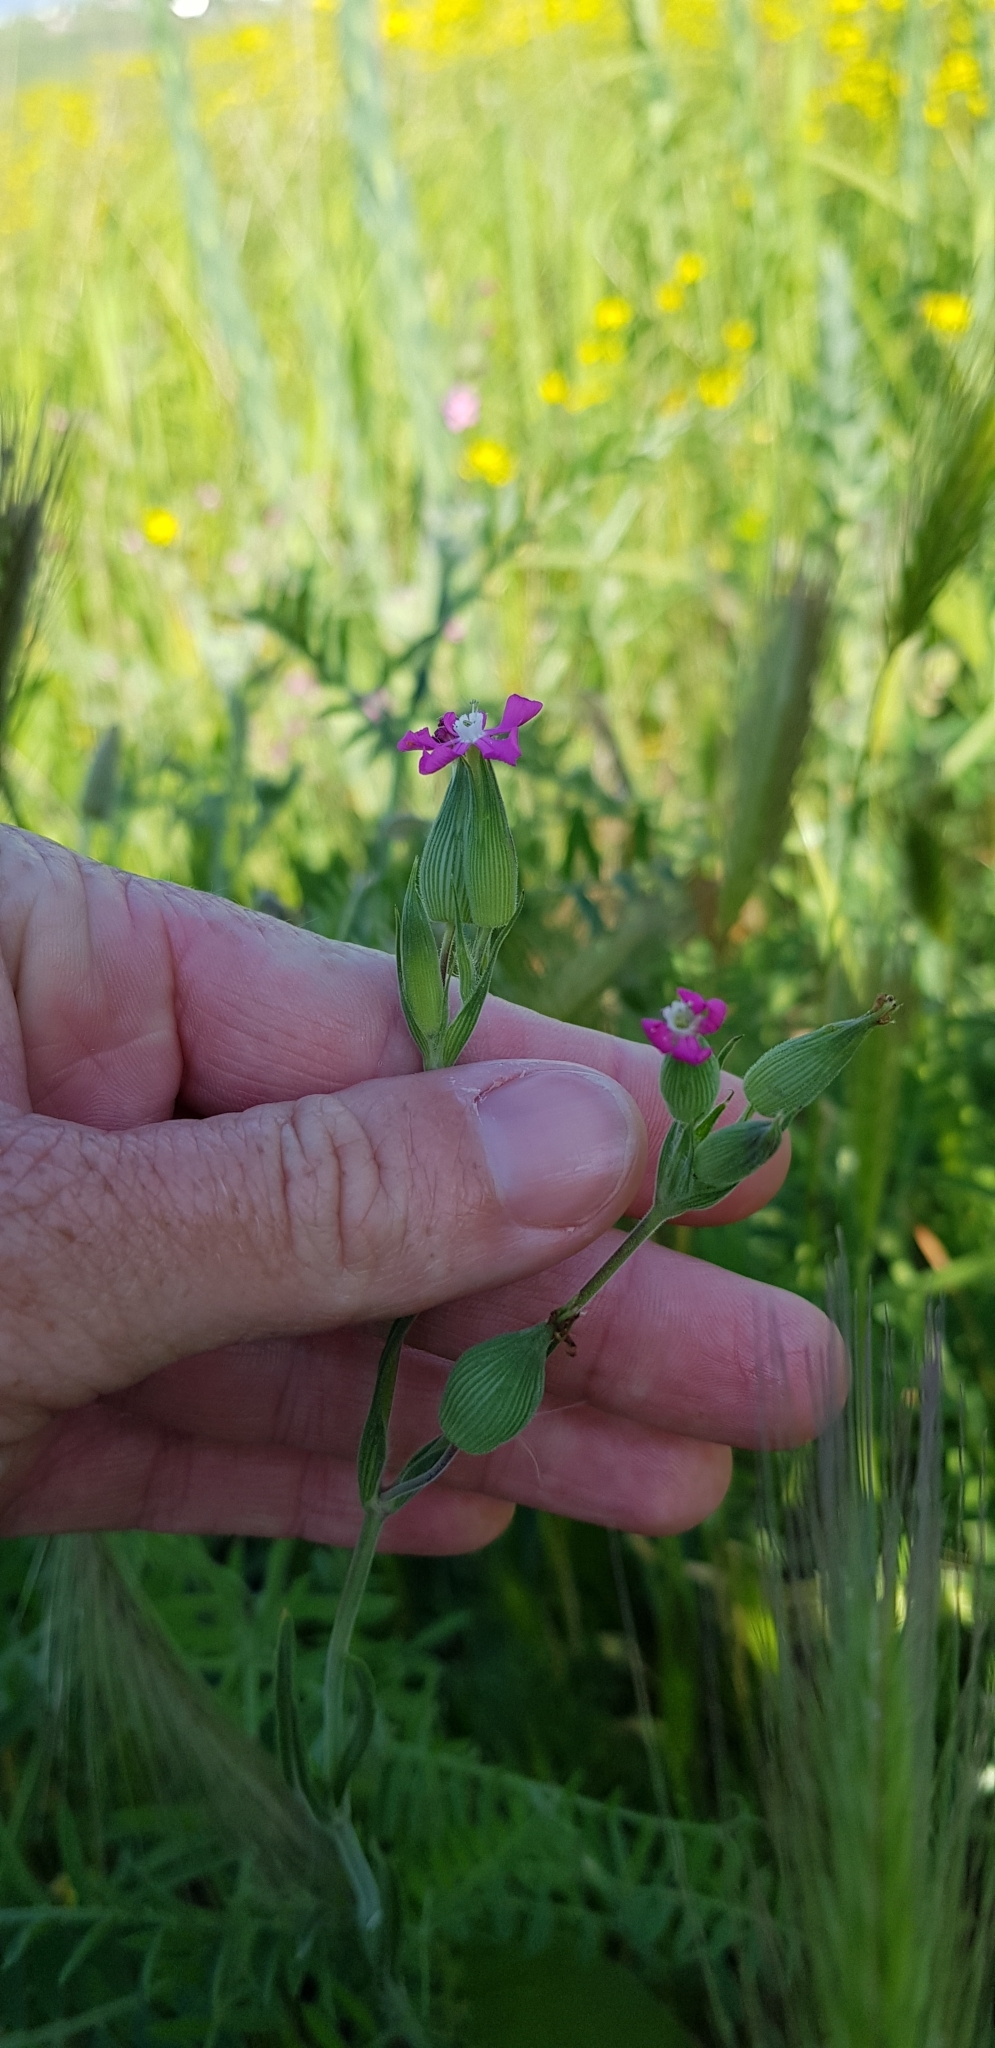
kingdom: Plantae
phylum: Tracheophyta
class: Magnoliopsida
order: Caryophyllales
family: Caryophyllaceae
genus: Silene
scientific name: Silene conica
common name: Sand catchfly
